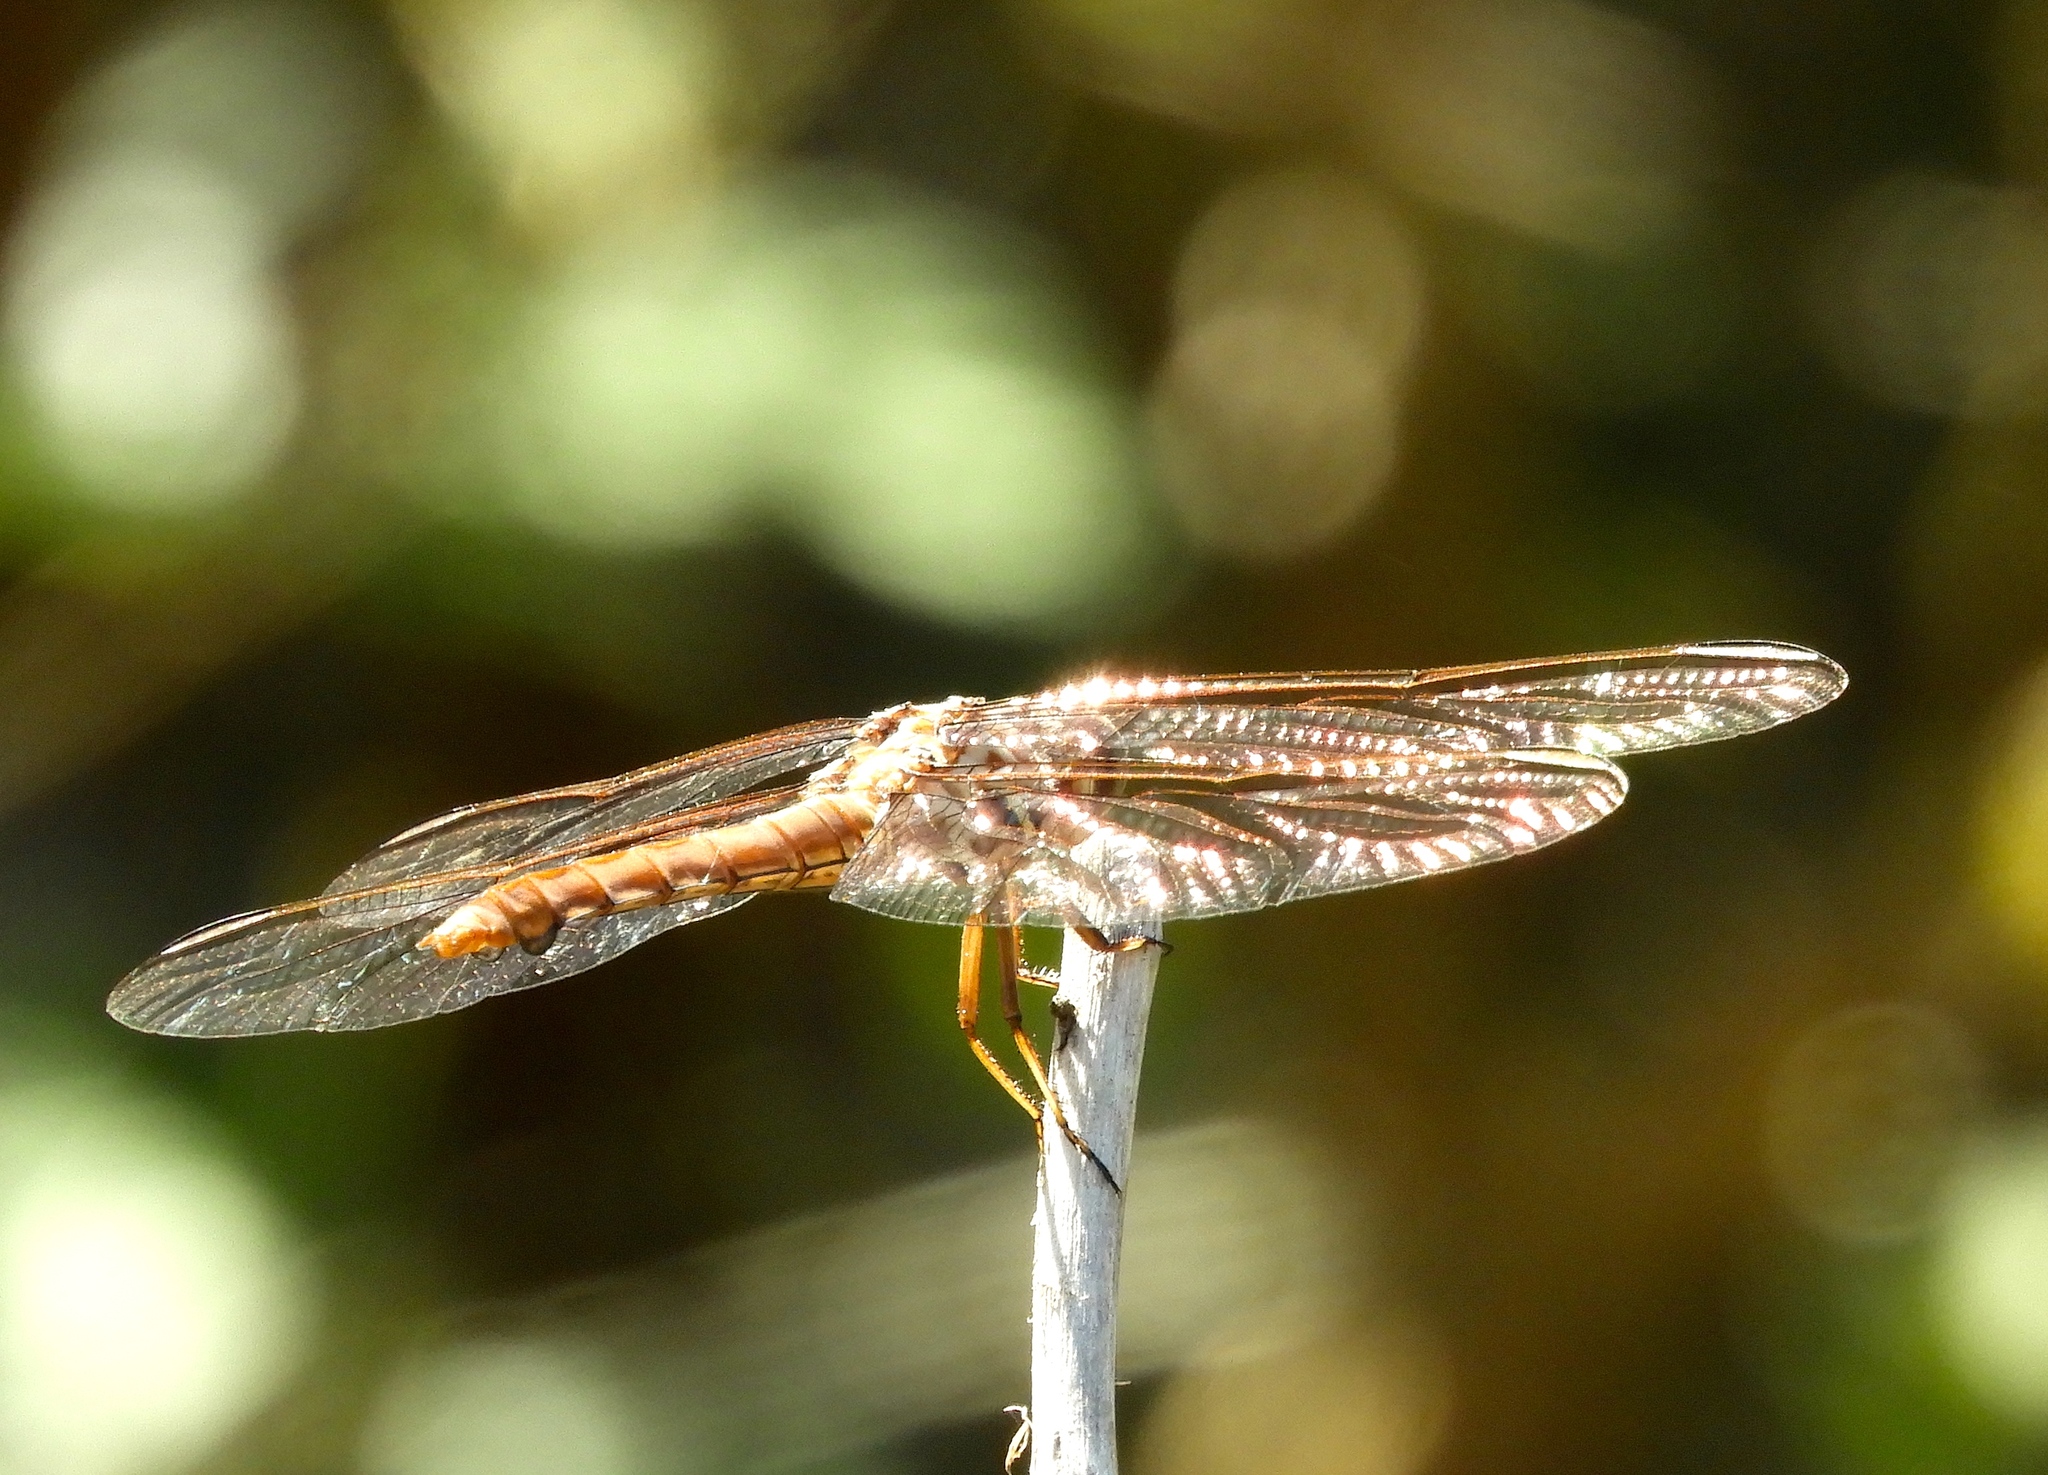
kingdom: Animalia
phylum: Arthropoda
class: Insecta
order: Odonata
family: Libellulidae
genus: Orthemis
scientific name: Orthemis ferruginea
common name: Roseate skimmer
